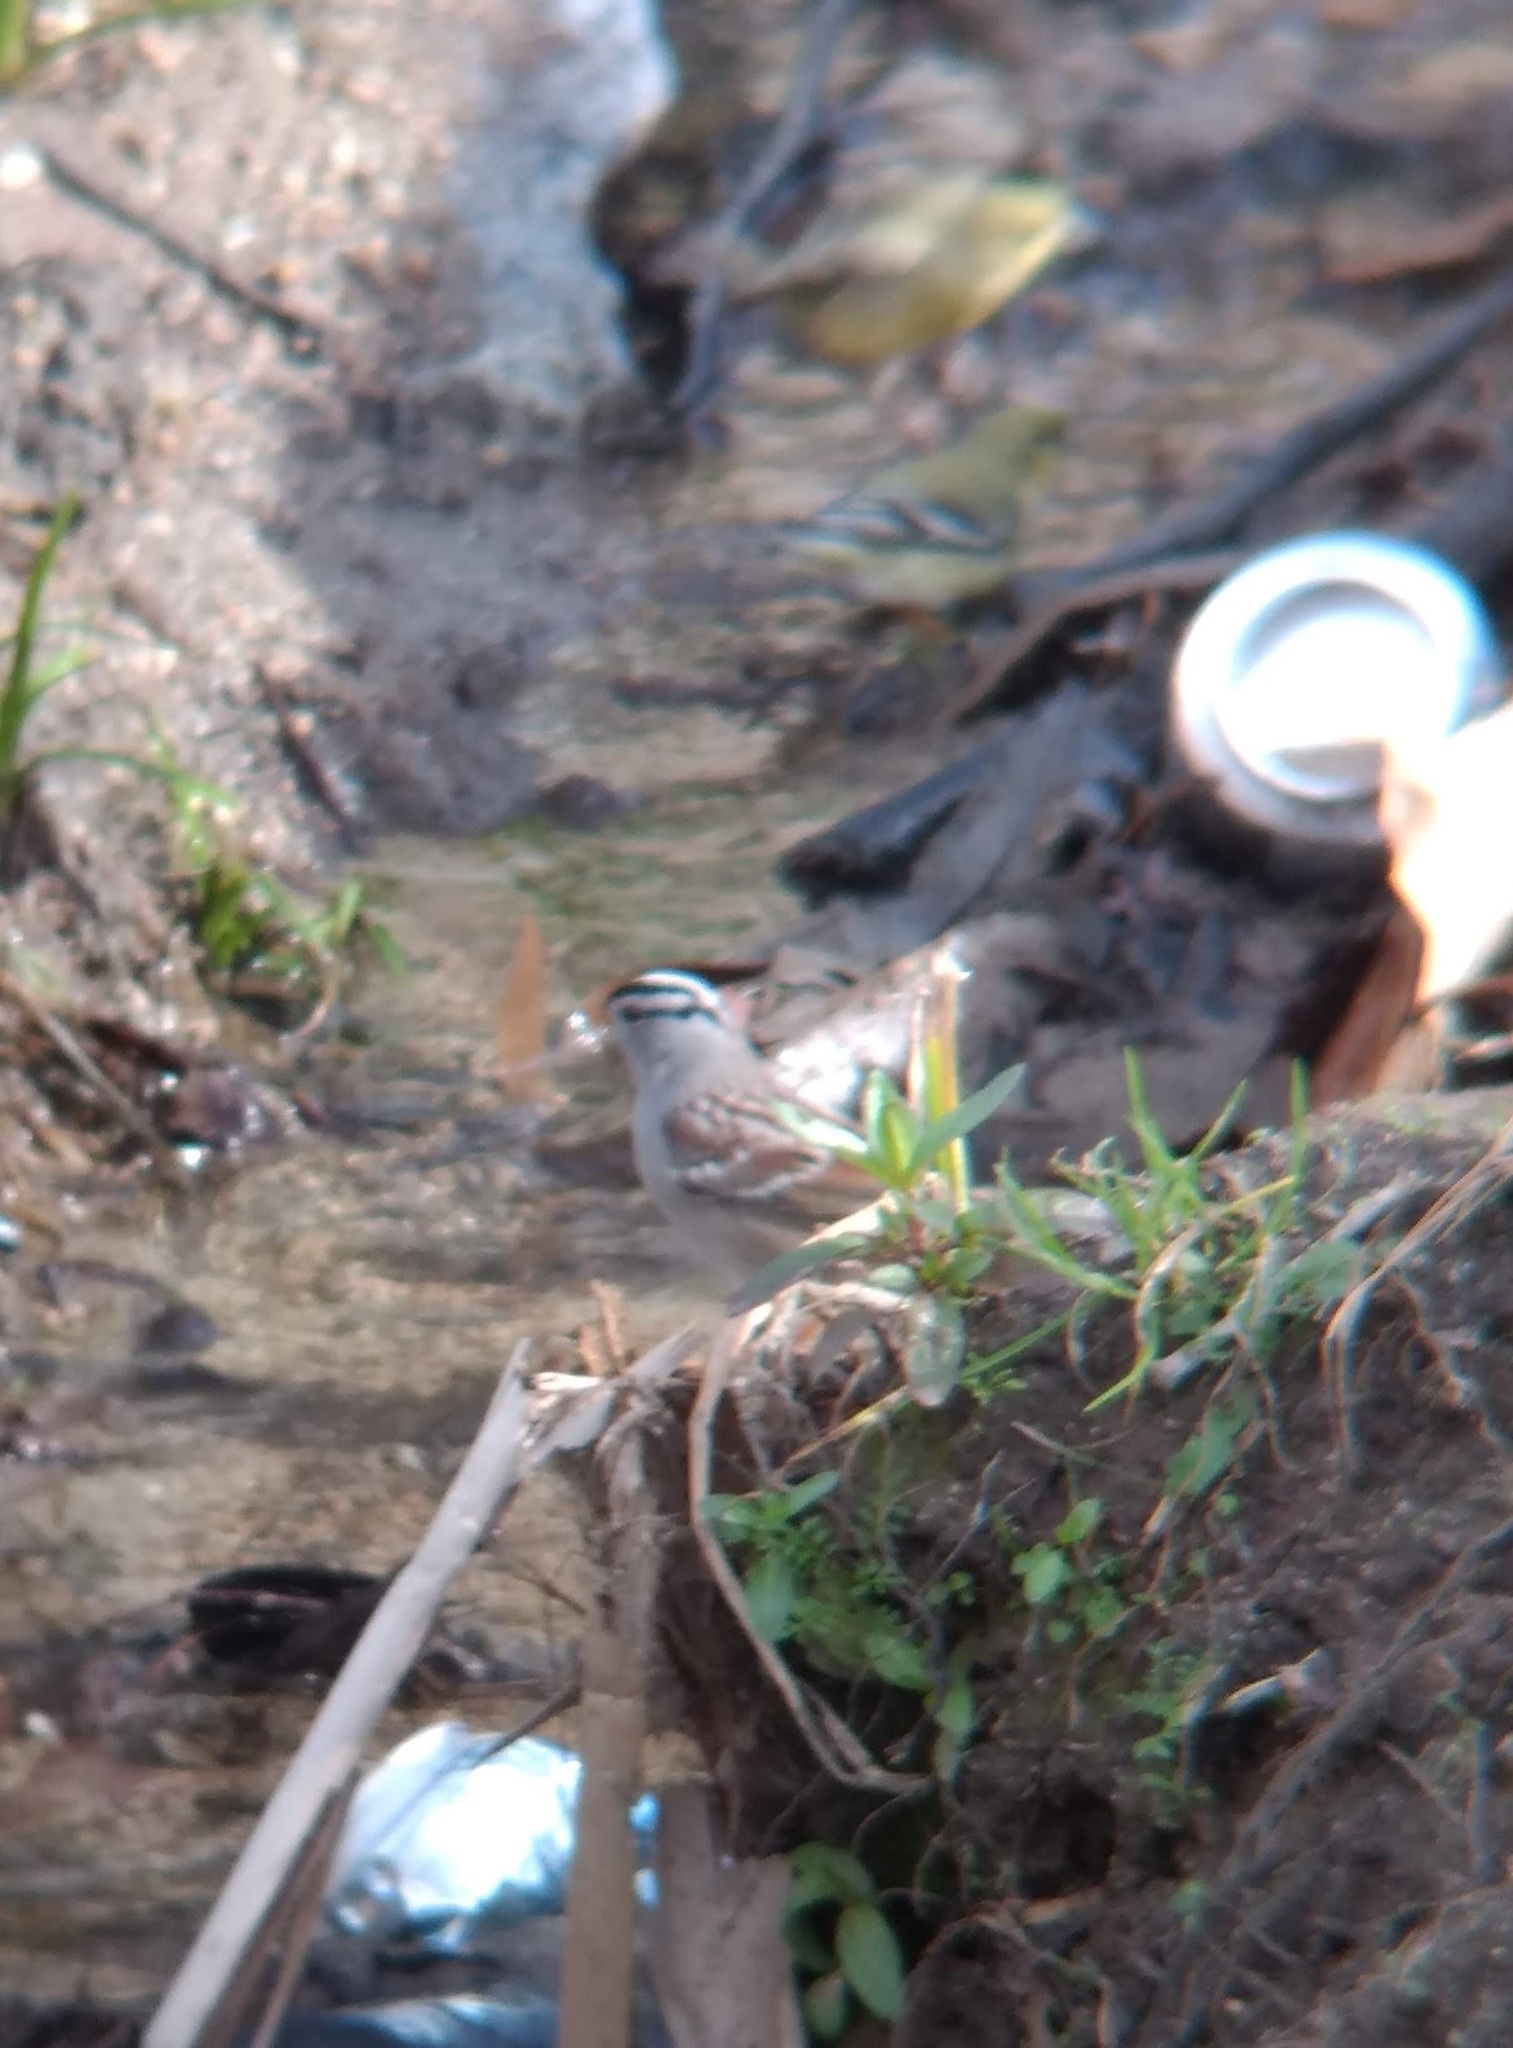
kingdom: Animalia
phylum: Chordata
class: Aves
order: Passeriformes
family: Passerellidae
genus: Zonotrichia
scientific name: Zonotrichia leucophrys
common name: White-crowned sparrow
